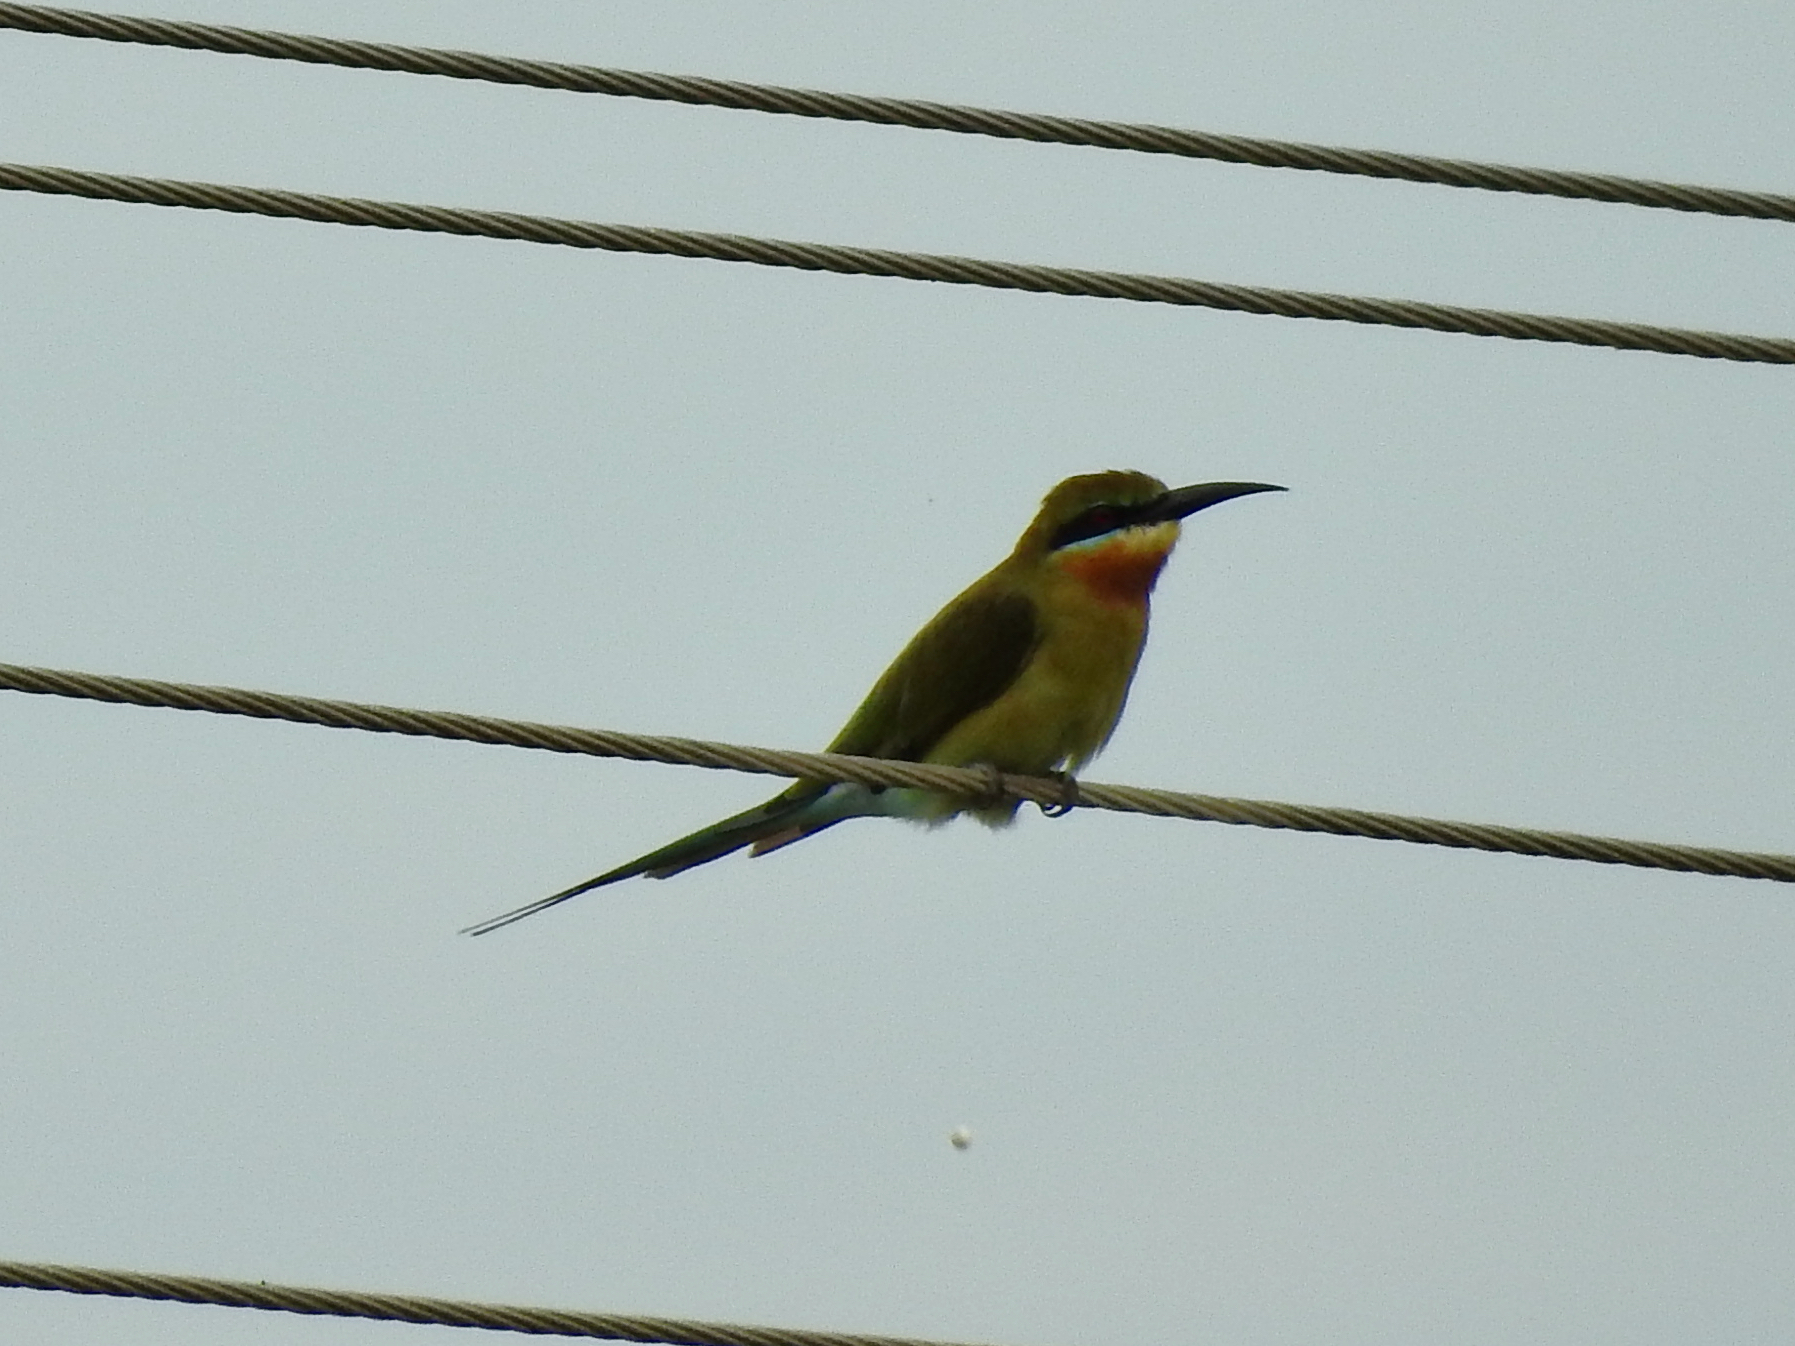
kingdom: Animalia
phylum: Chordata
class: Aves
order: Coraciiformes
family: Meropidae
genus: Merops
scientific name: Merops philippinus
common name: Blue-tailed bee-eater
